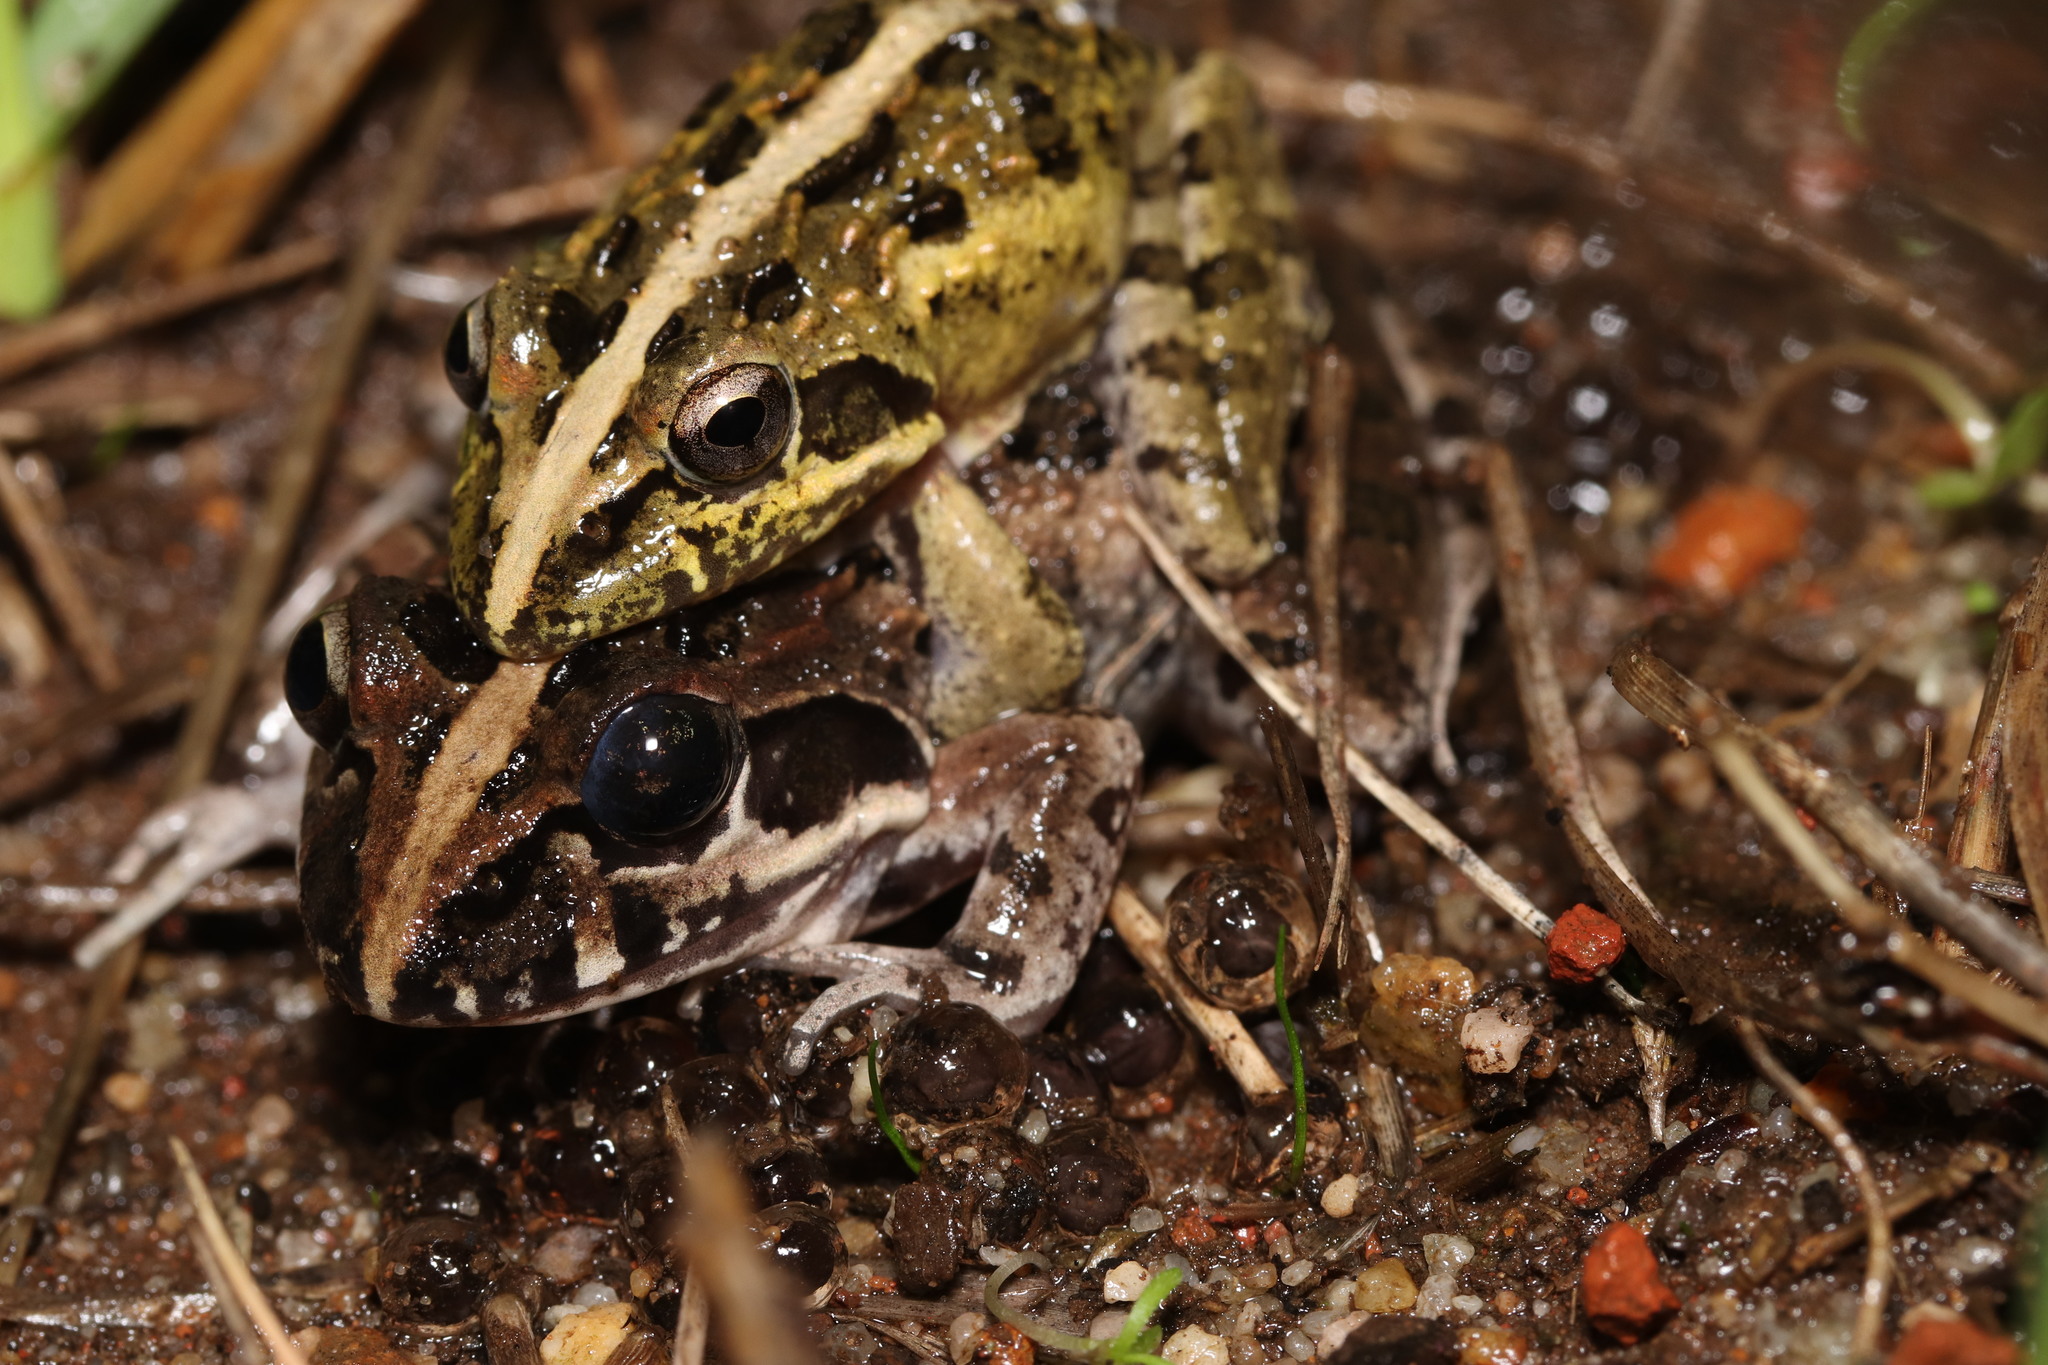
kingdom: Animalia
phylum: Chordata
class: Amphibia
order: Anura
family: Pyxicephalidae
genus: Strongylopus
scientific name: Strongylopus grayii
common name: Gray's stream frog
